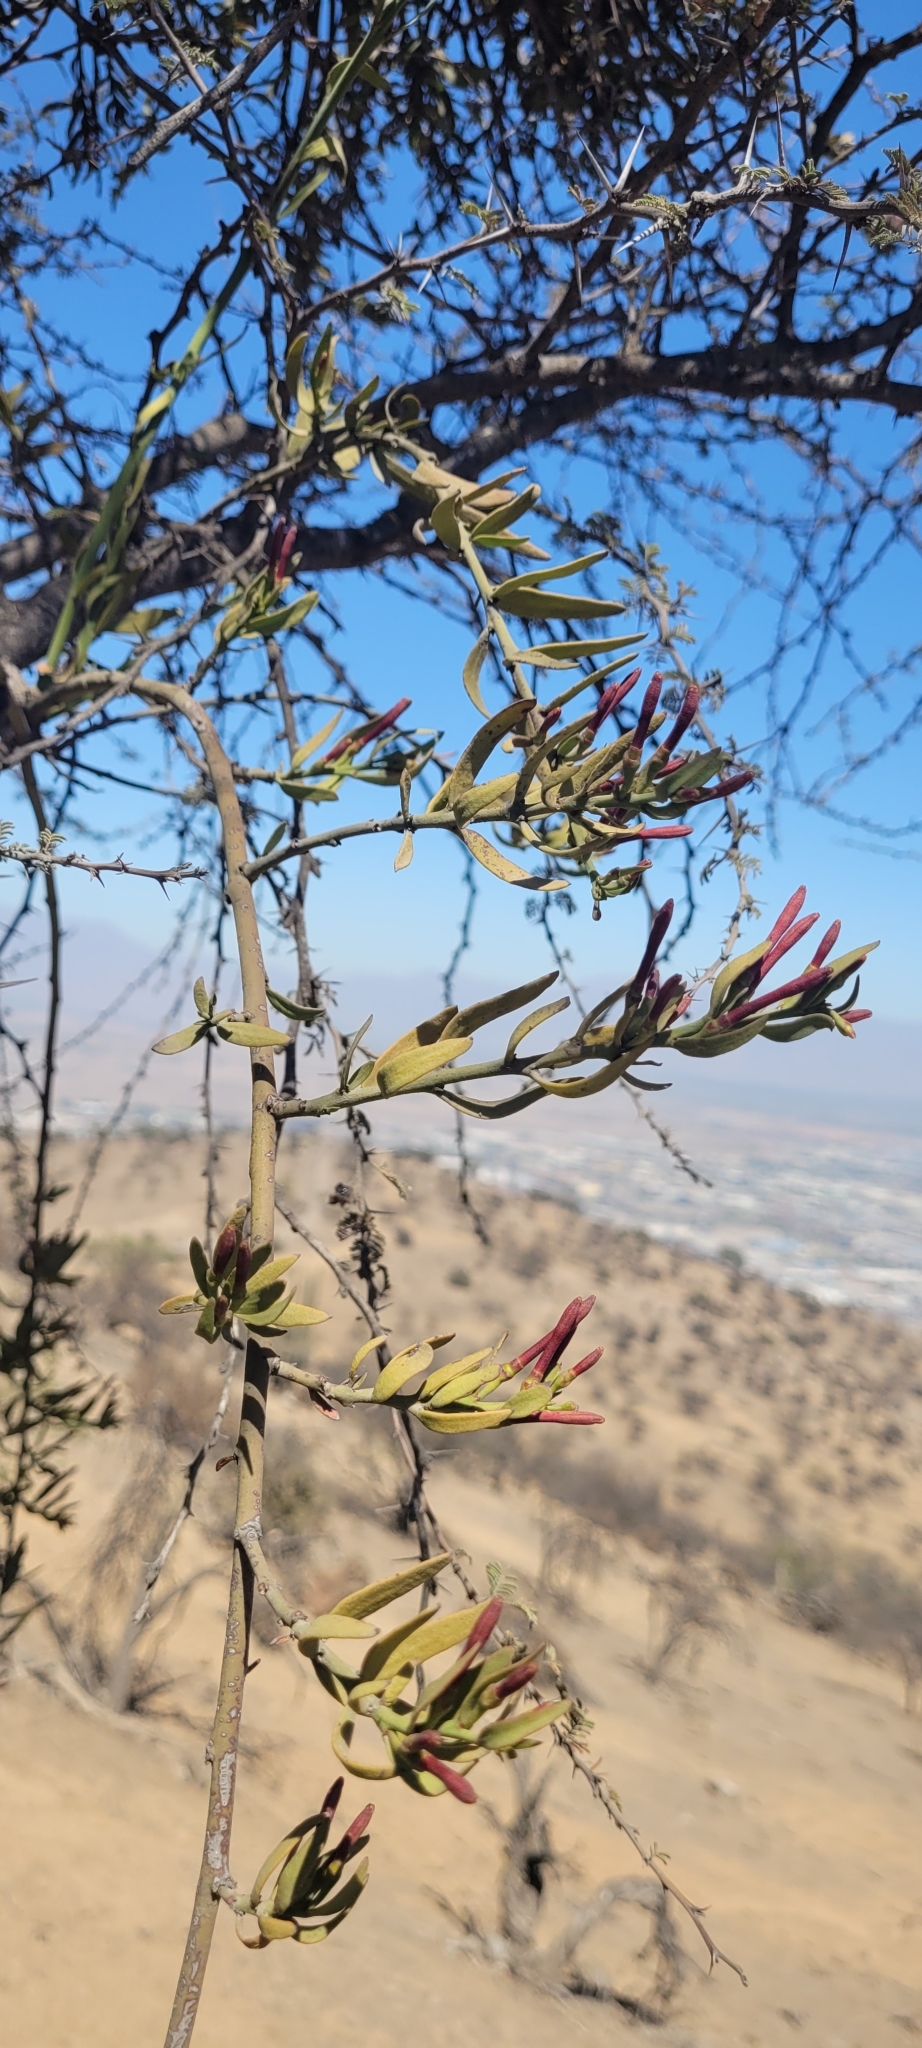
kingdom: Plantae
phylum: Tracheophyta
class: Magnoliopsida
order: Santalales
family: Loranthaceae
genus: Ligaria
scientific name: Ligaria cuneifolia
